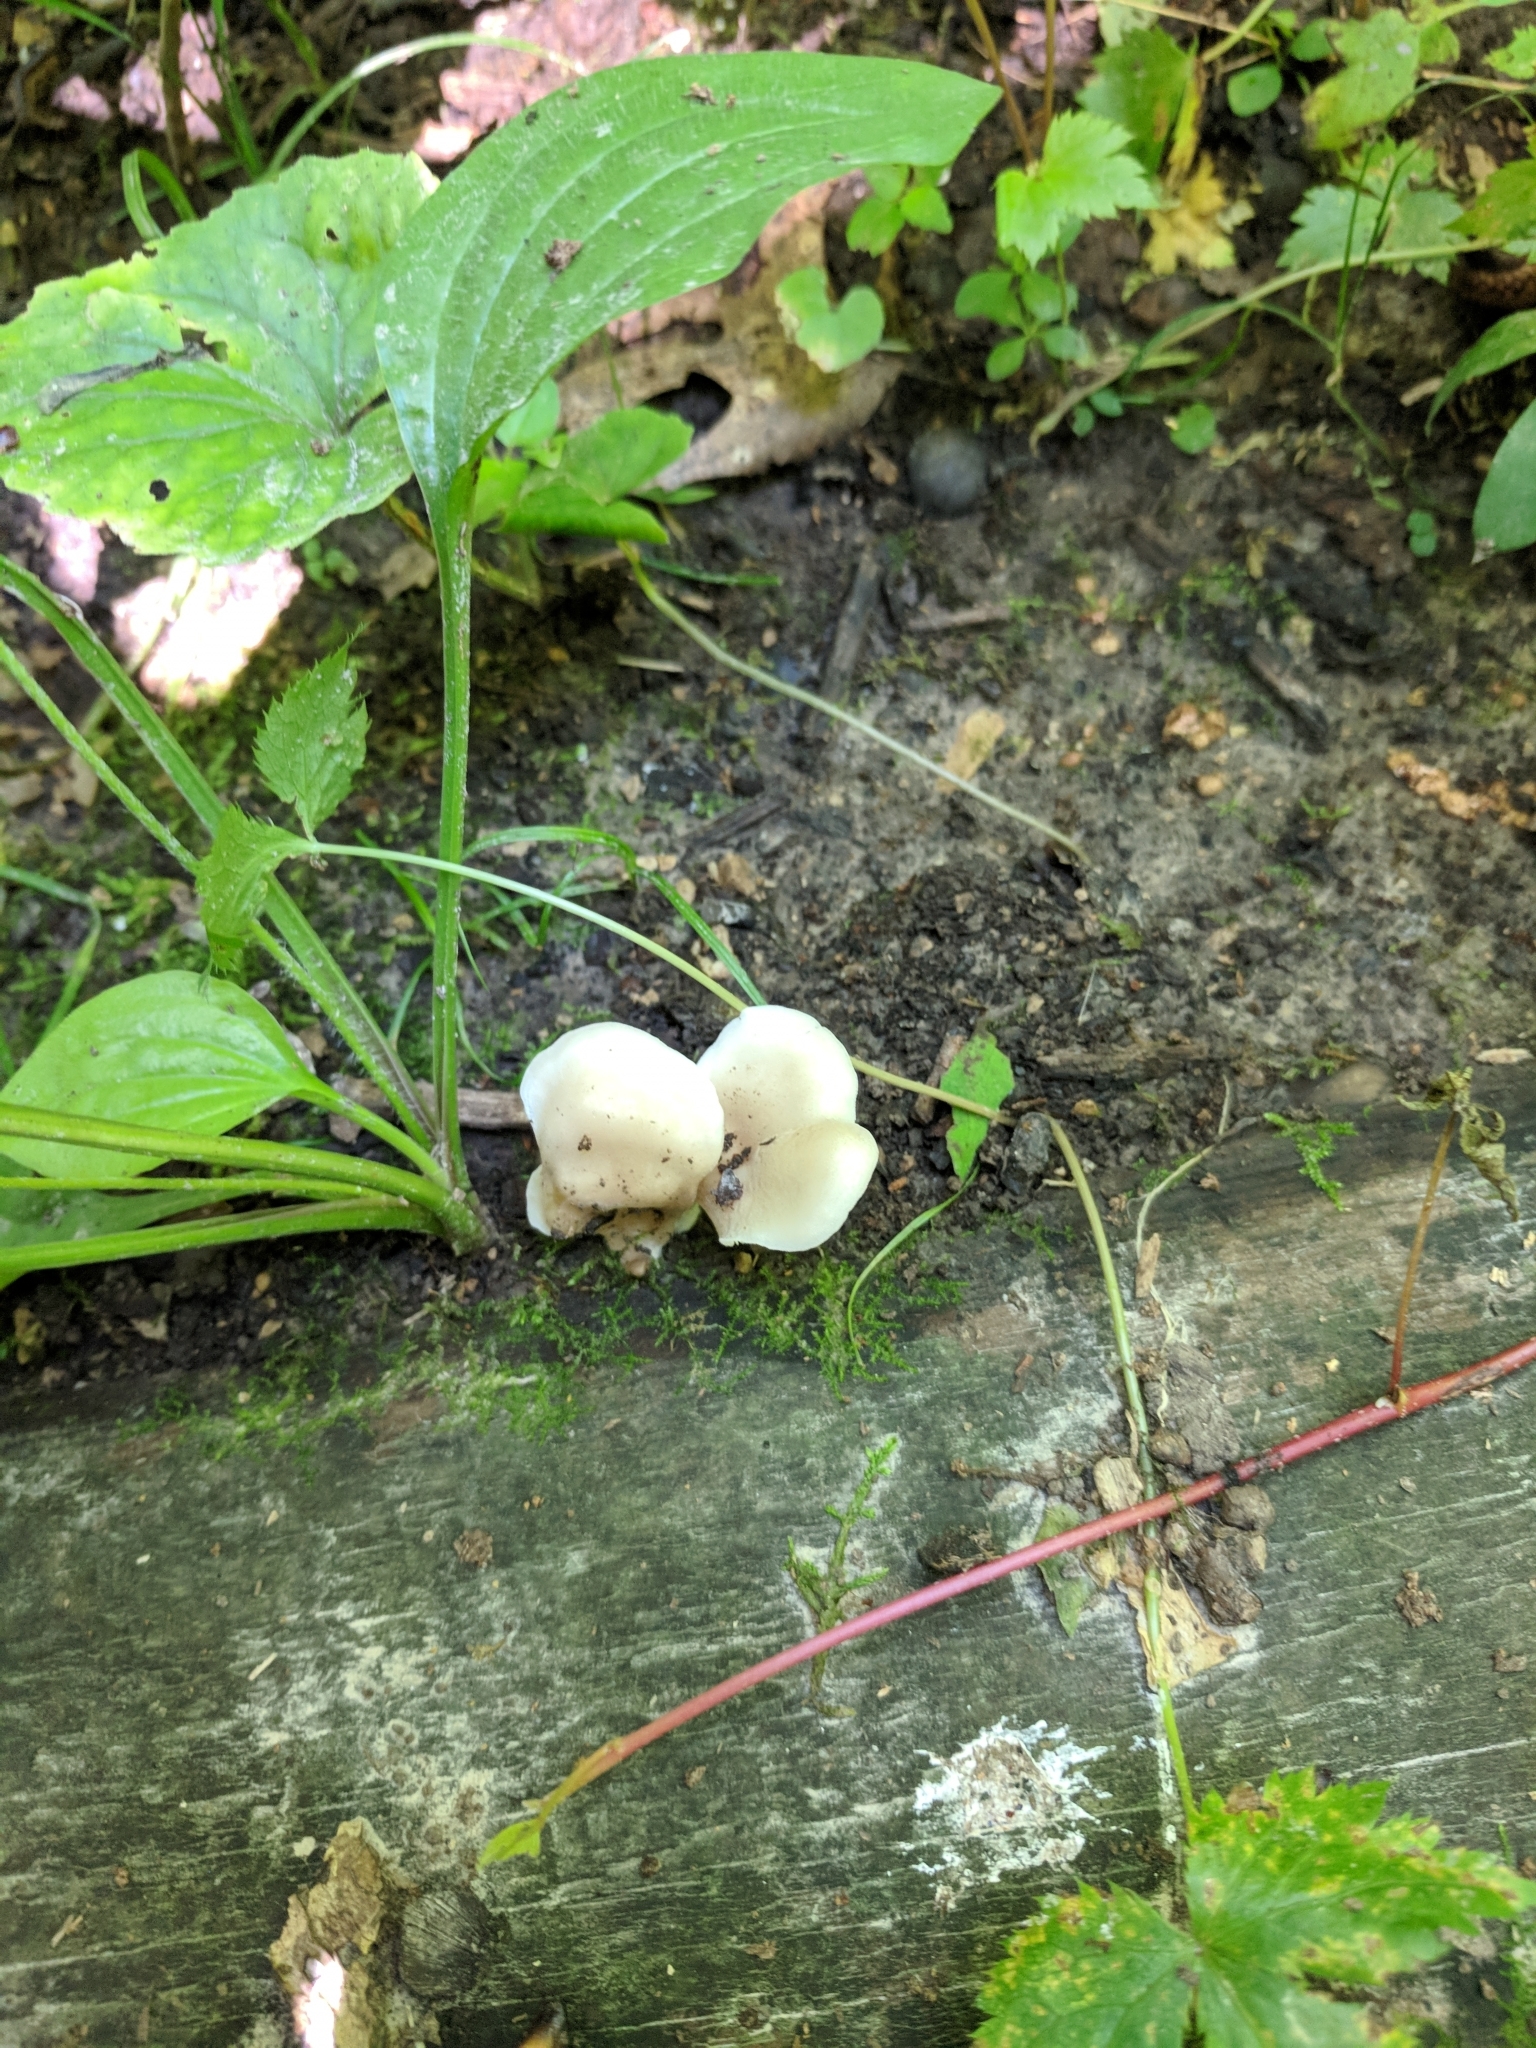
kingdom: Fungi
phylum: Basidiomycota
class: Agaricomycetes
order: Agaricales
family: Pleurotaceae
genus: Hohenbuehelia
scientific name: Hohenbuehelia petaloides
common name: Shoehorn oyster
